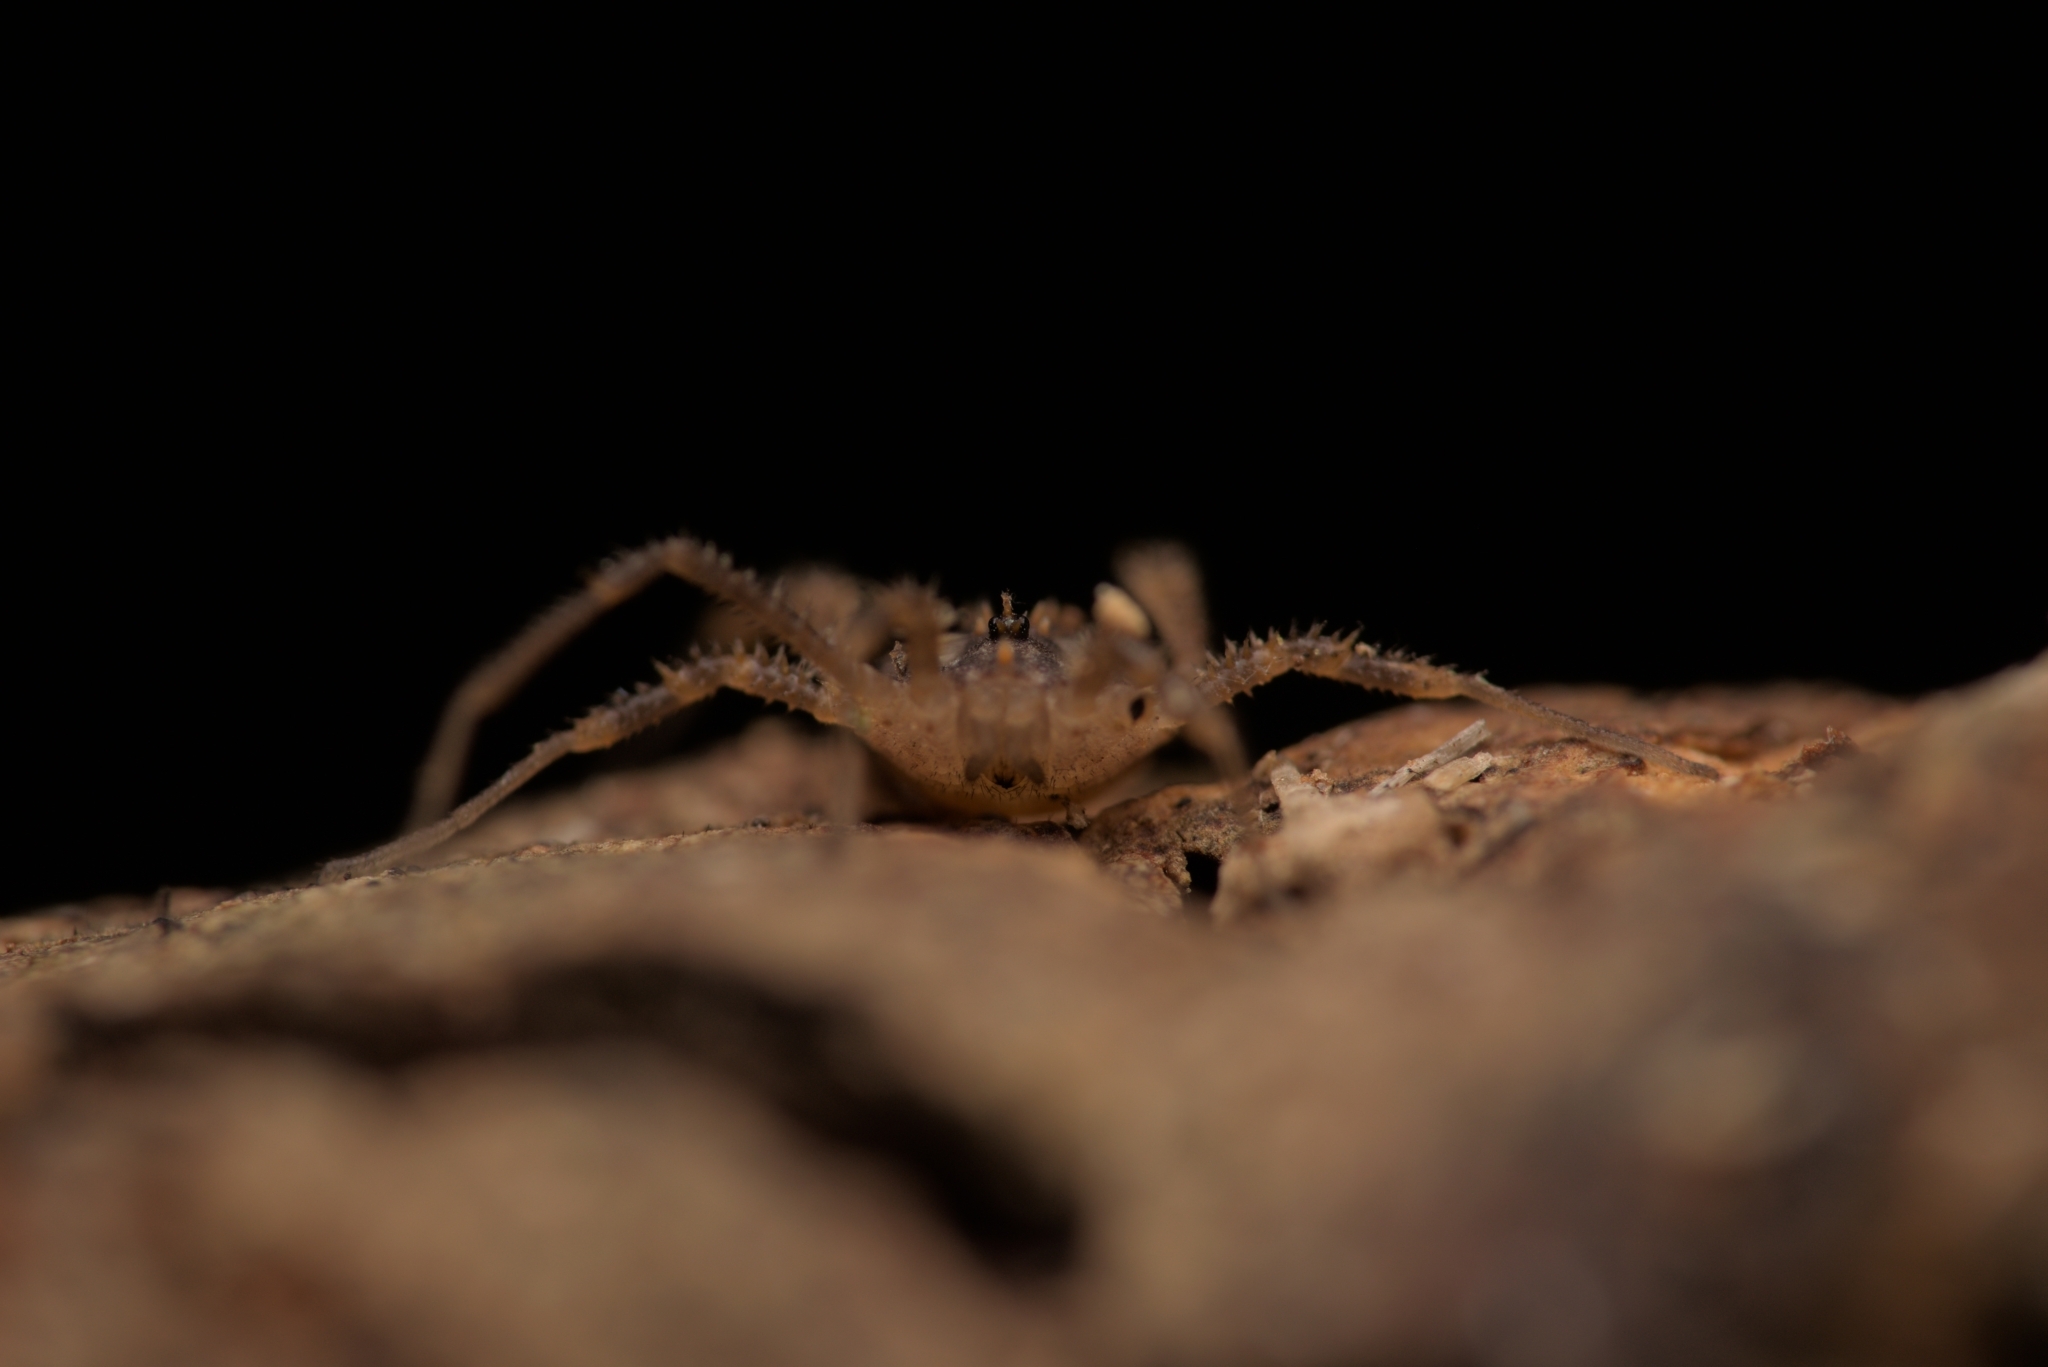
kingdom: Animalia
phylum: Arthropoda
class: Arachnida
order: Opiliones
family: Sclerosomatidae
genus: Homalenotus
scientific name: Homalenotus quadridentatus
